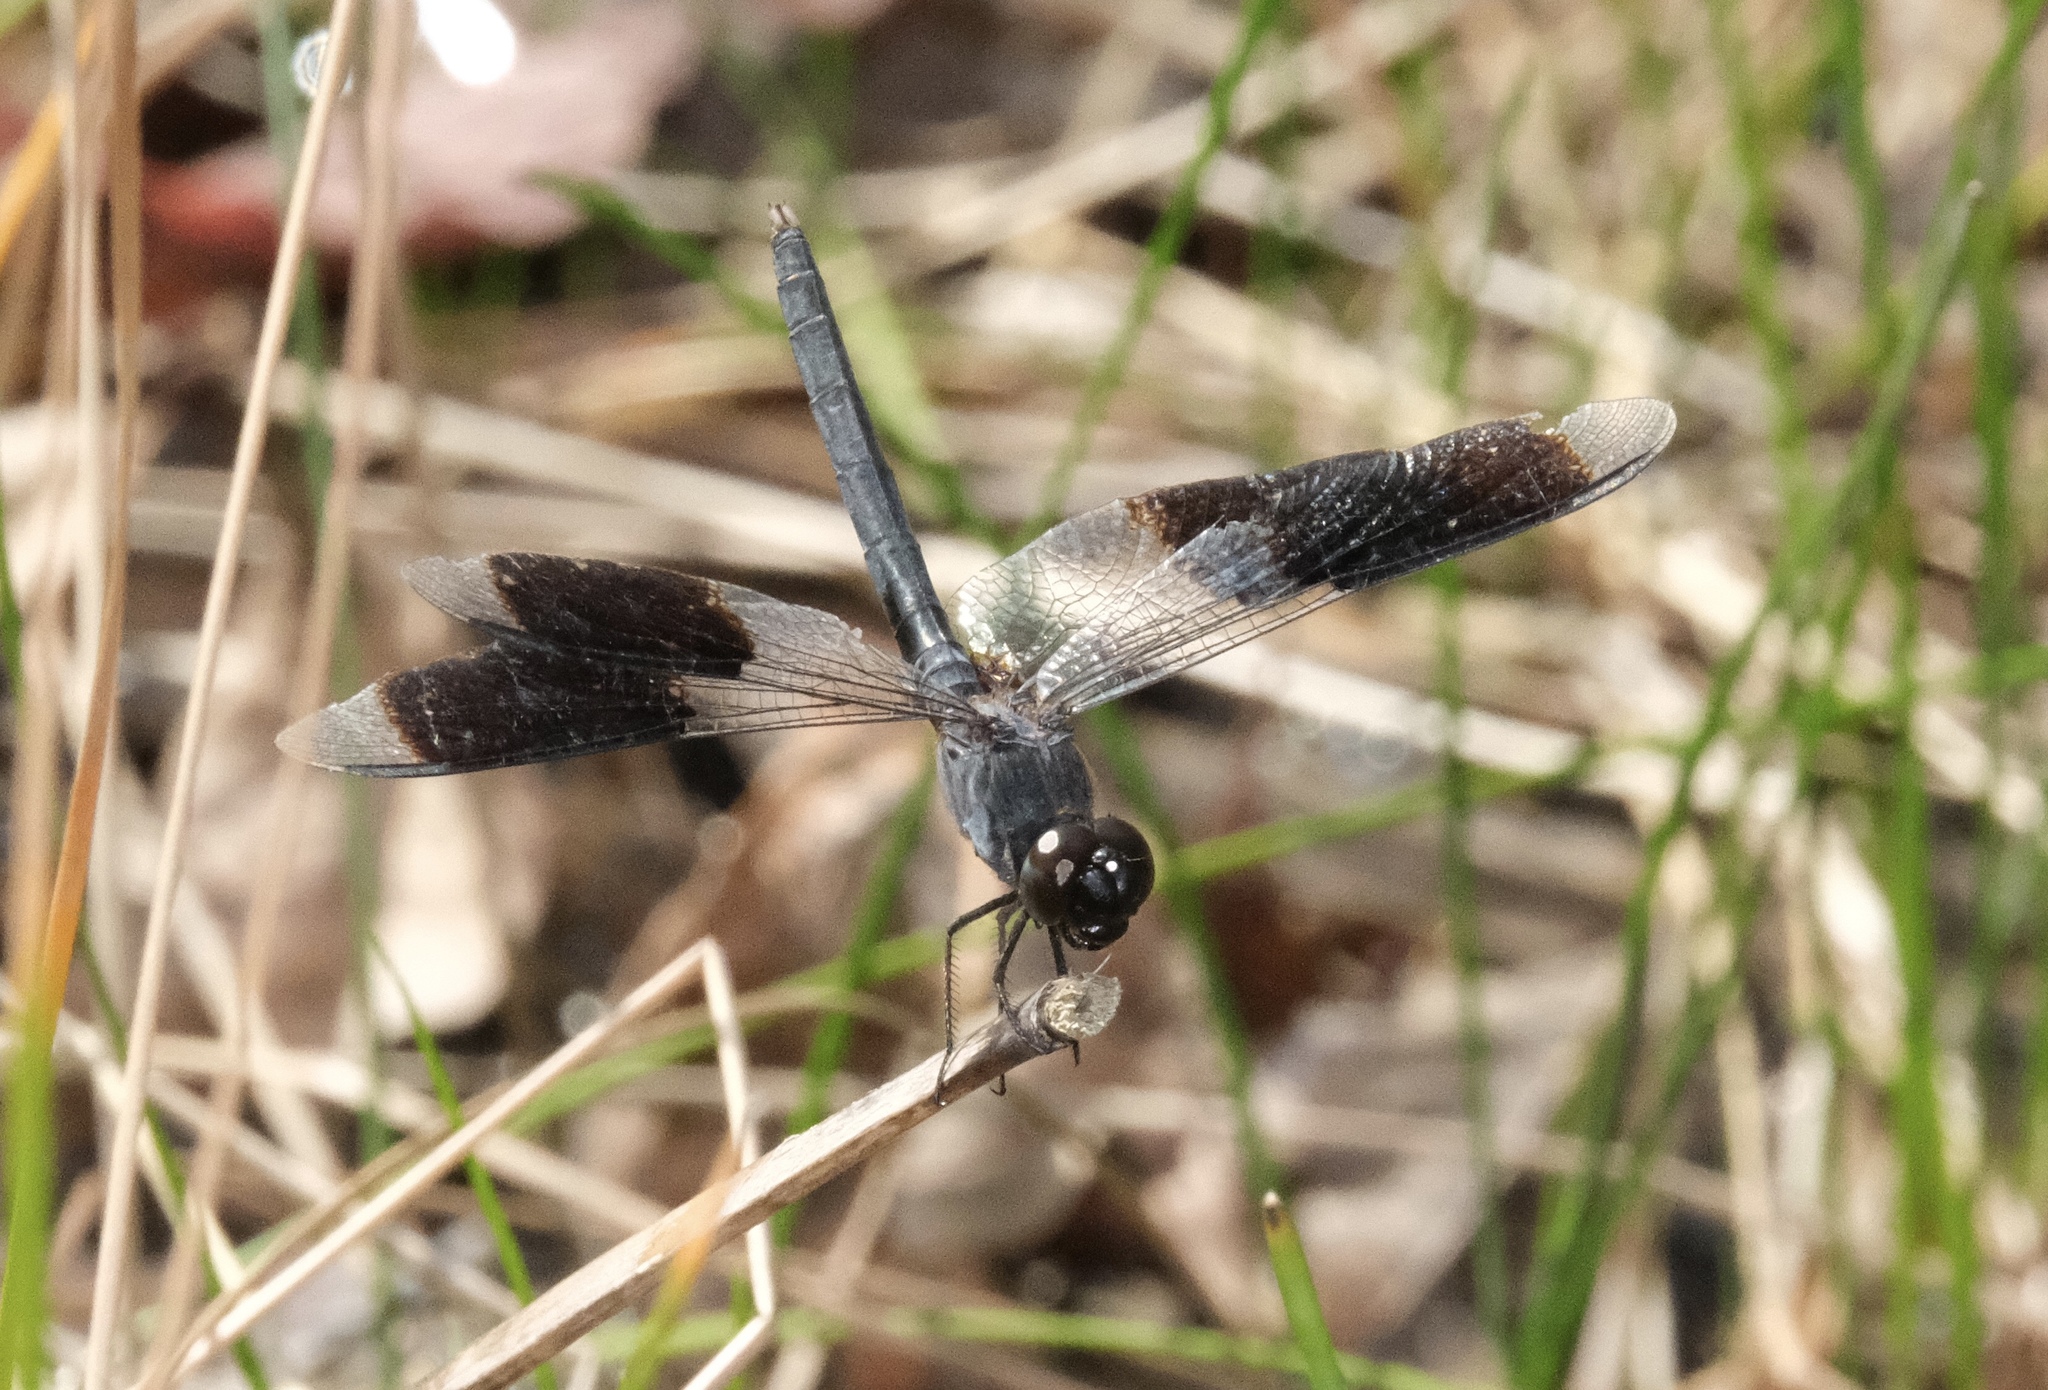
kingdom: Animalia
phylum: Arthropoda
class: Insecta
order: Odonata
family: Libellulidae
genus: Erythrodiplax
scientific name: Erythrodiplax umbrata
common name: Band-winged dragonlet
